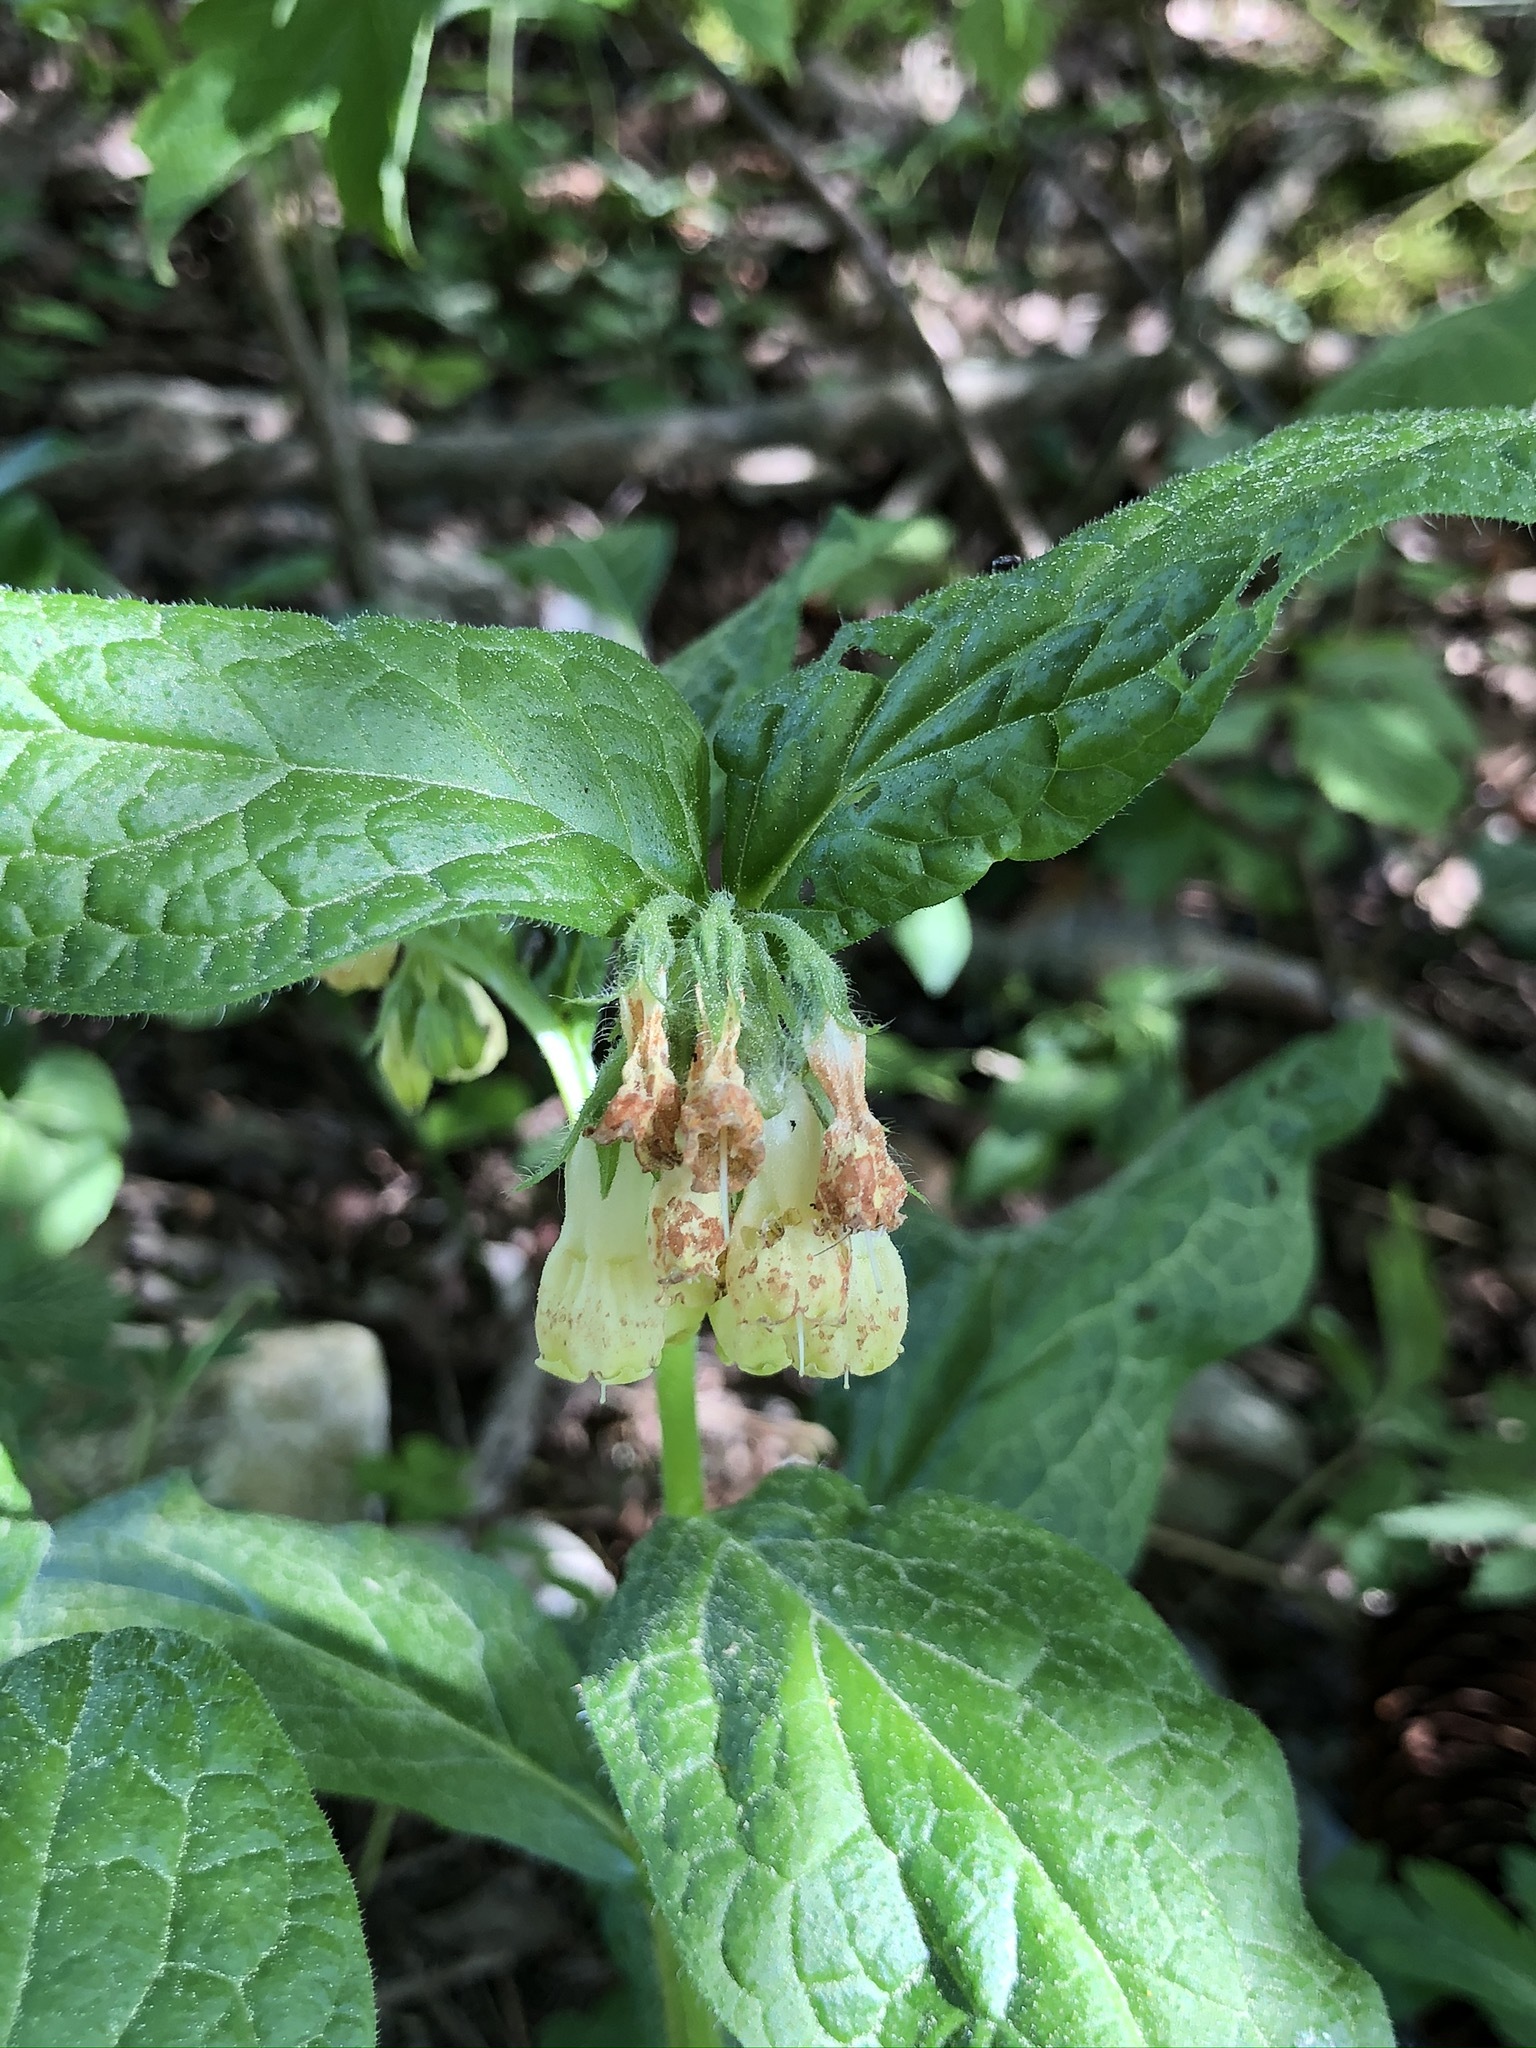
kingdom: Plantae
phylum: Tracheophyta
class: Magnoliopsida
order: Boraginales
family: Boraginaceae
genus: Symphytum
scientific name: Symphytum tuberosum
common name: Tuberous comfrey
